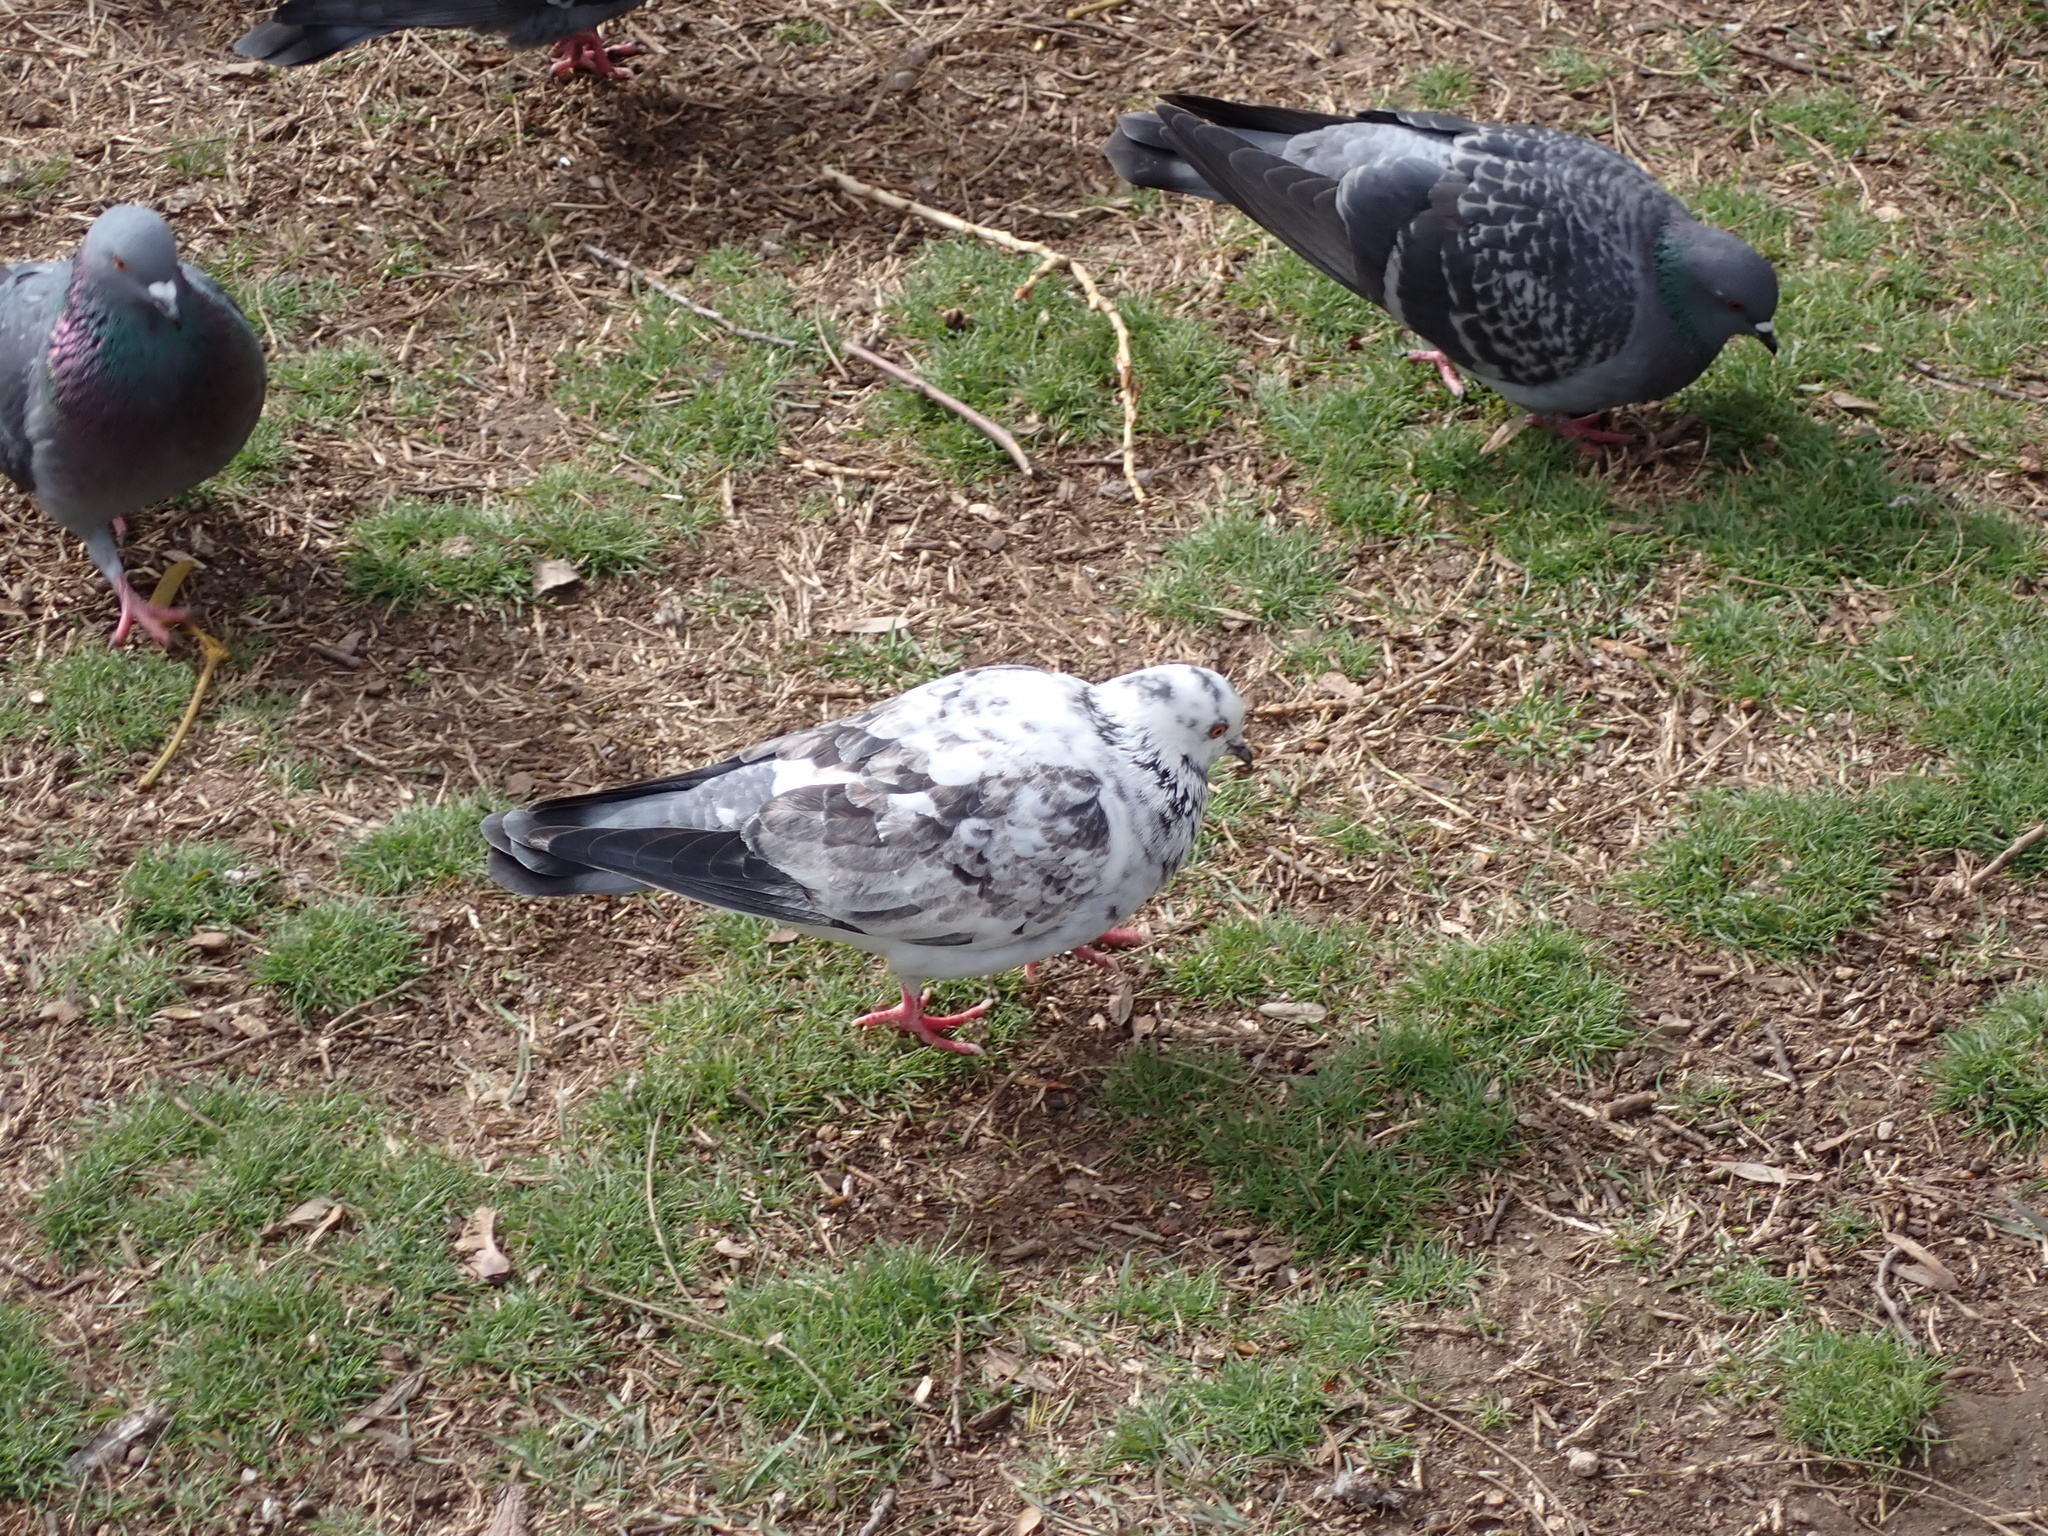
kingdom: Animalia
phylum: Chordata
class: Aves
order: Columbiformes
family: Columbidae
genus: Columba
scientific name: Columba livia
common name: Rock pigeon
